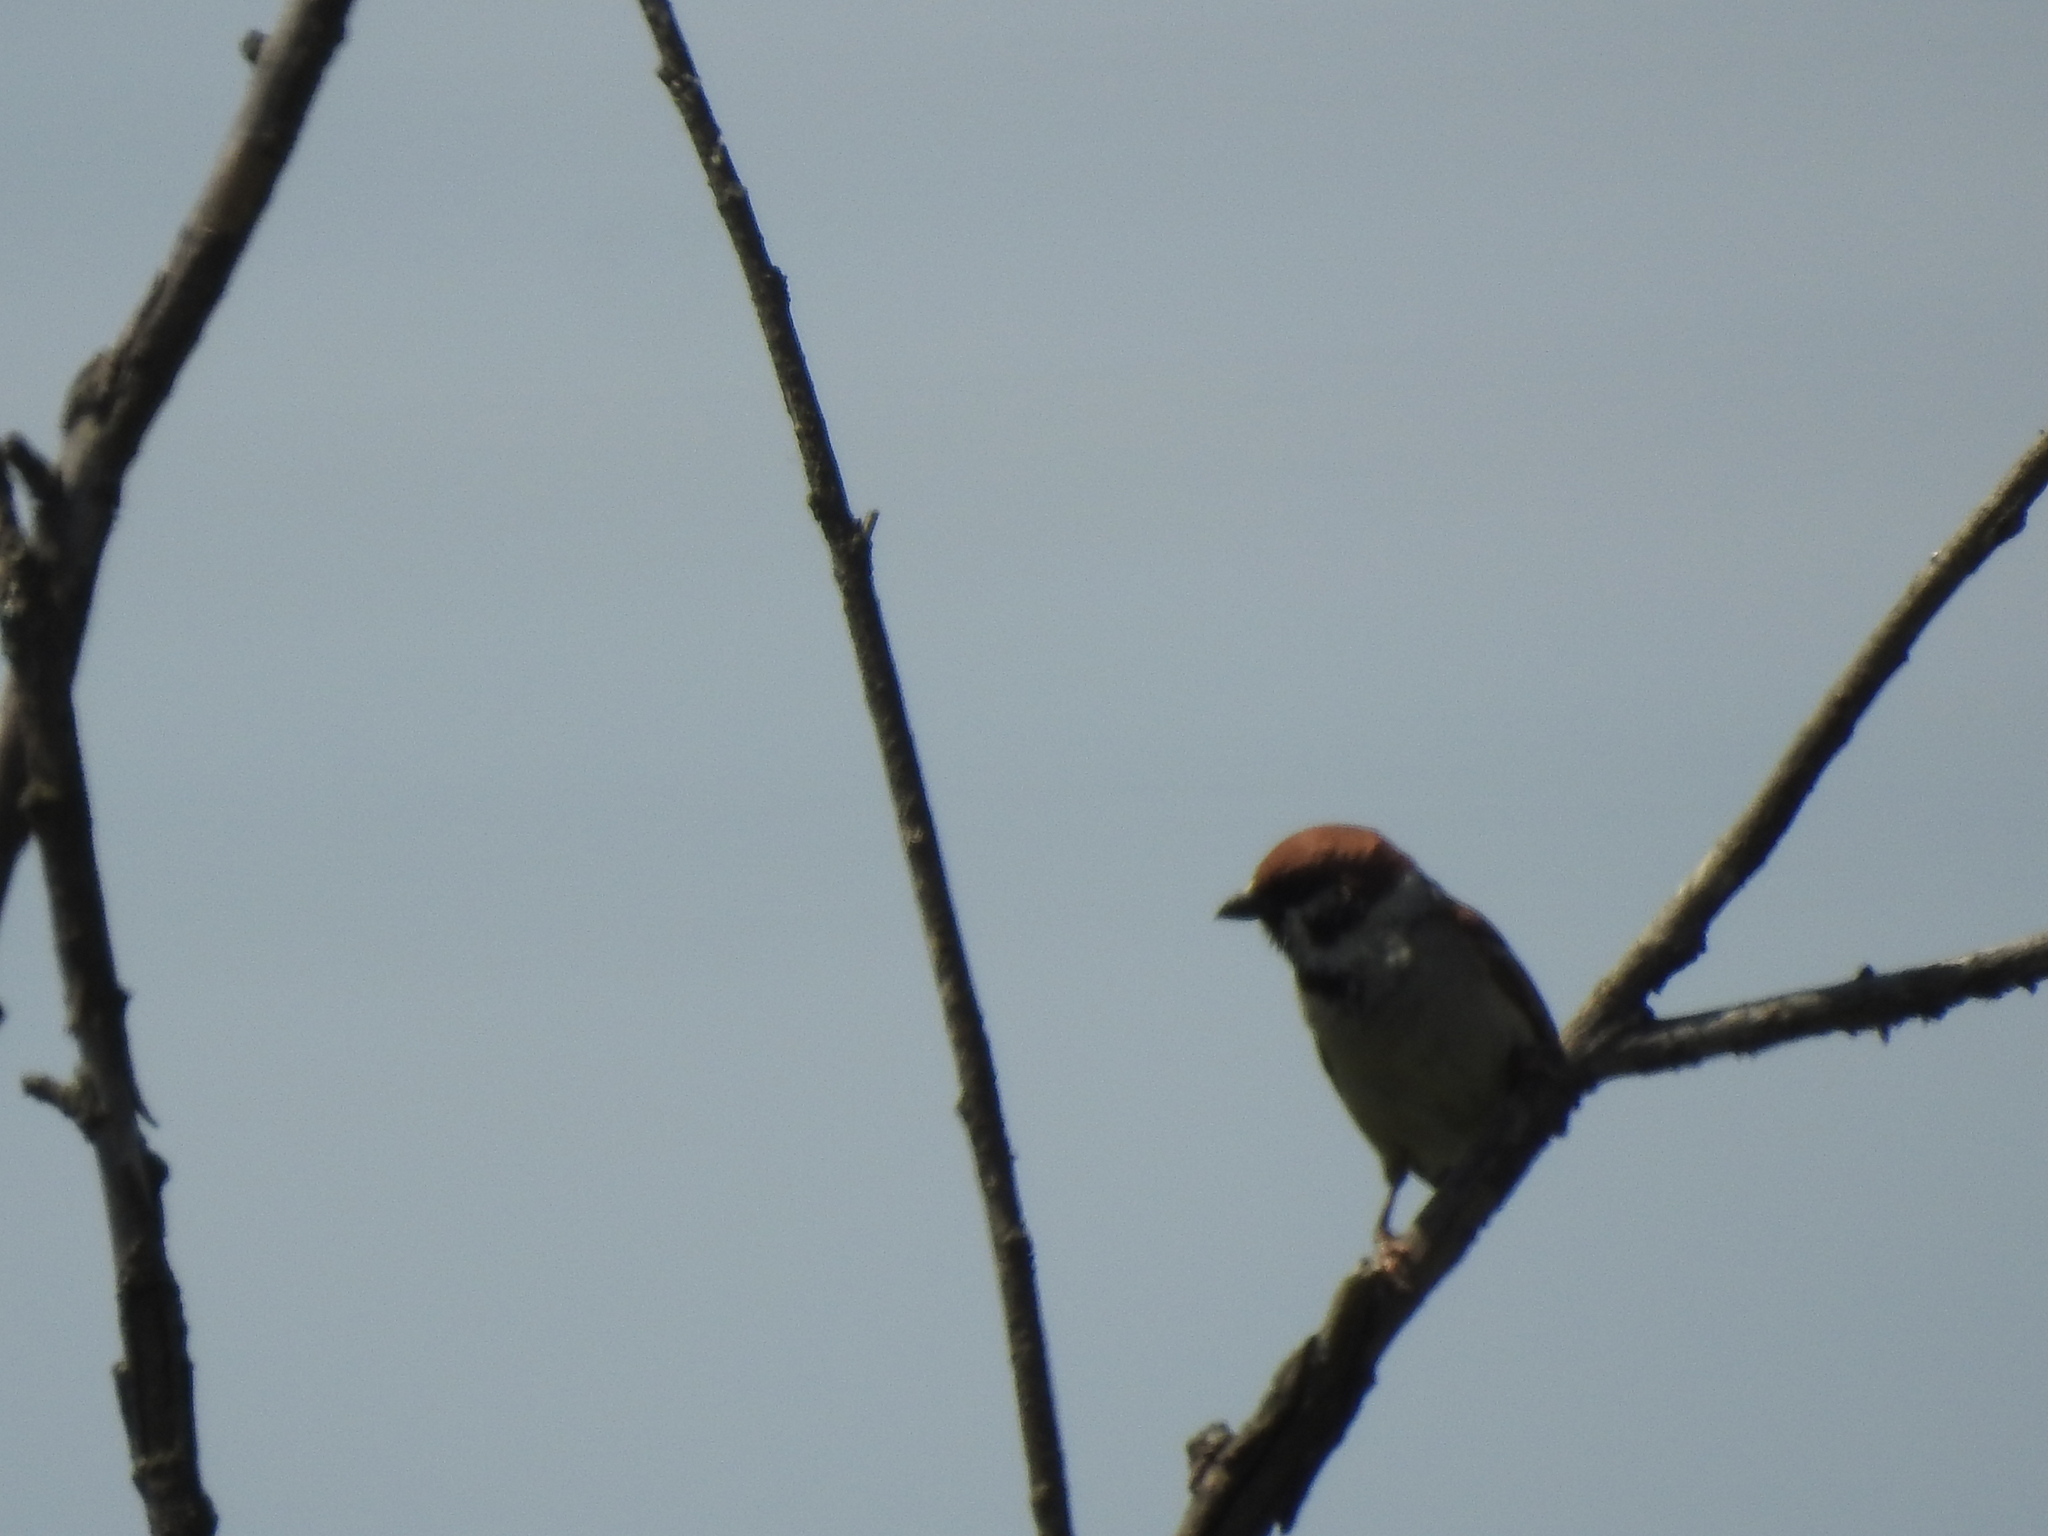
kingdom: Animalia
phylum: Chordata
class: Aves
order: Passeriformes
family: Passeridae
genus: Passer
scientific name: Passer montanus
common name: Eurasian tree sparrow
